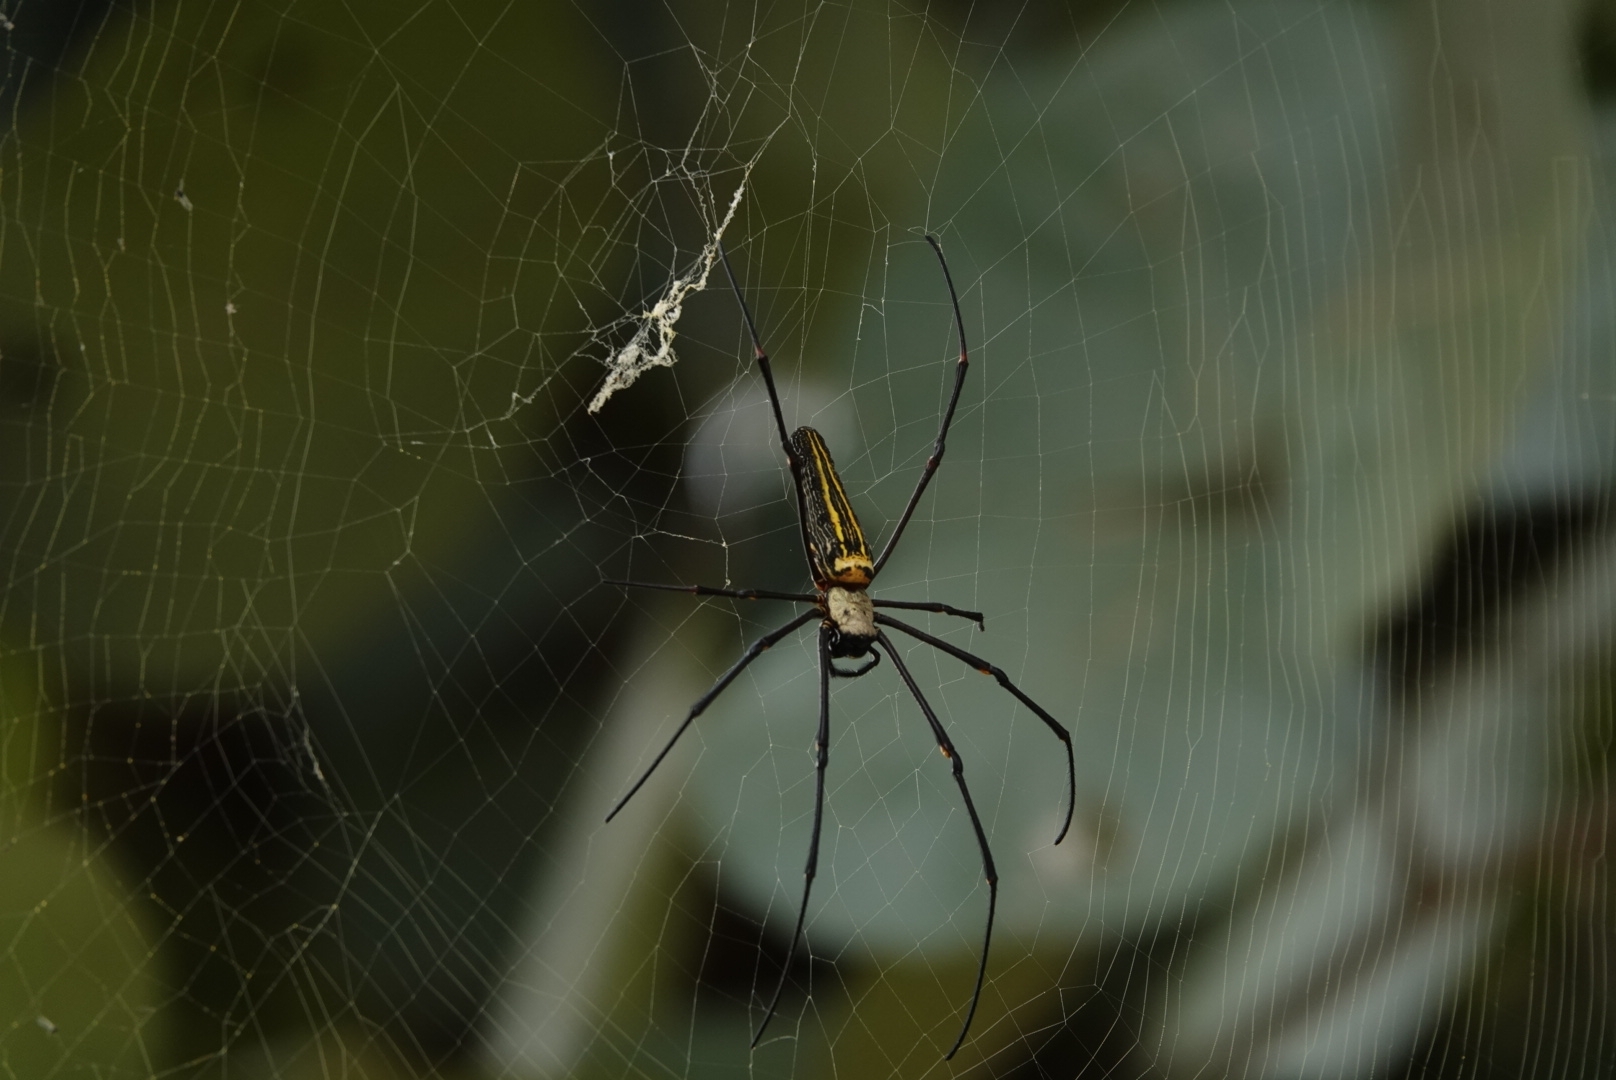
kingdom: Animalia
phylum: Arthropoda
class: Arachnida
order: Araneae
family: Araneidae
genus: Nephila
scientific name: Nephila pilipes
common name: Giant golden orb weaver
